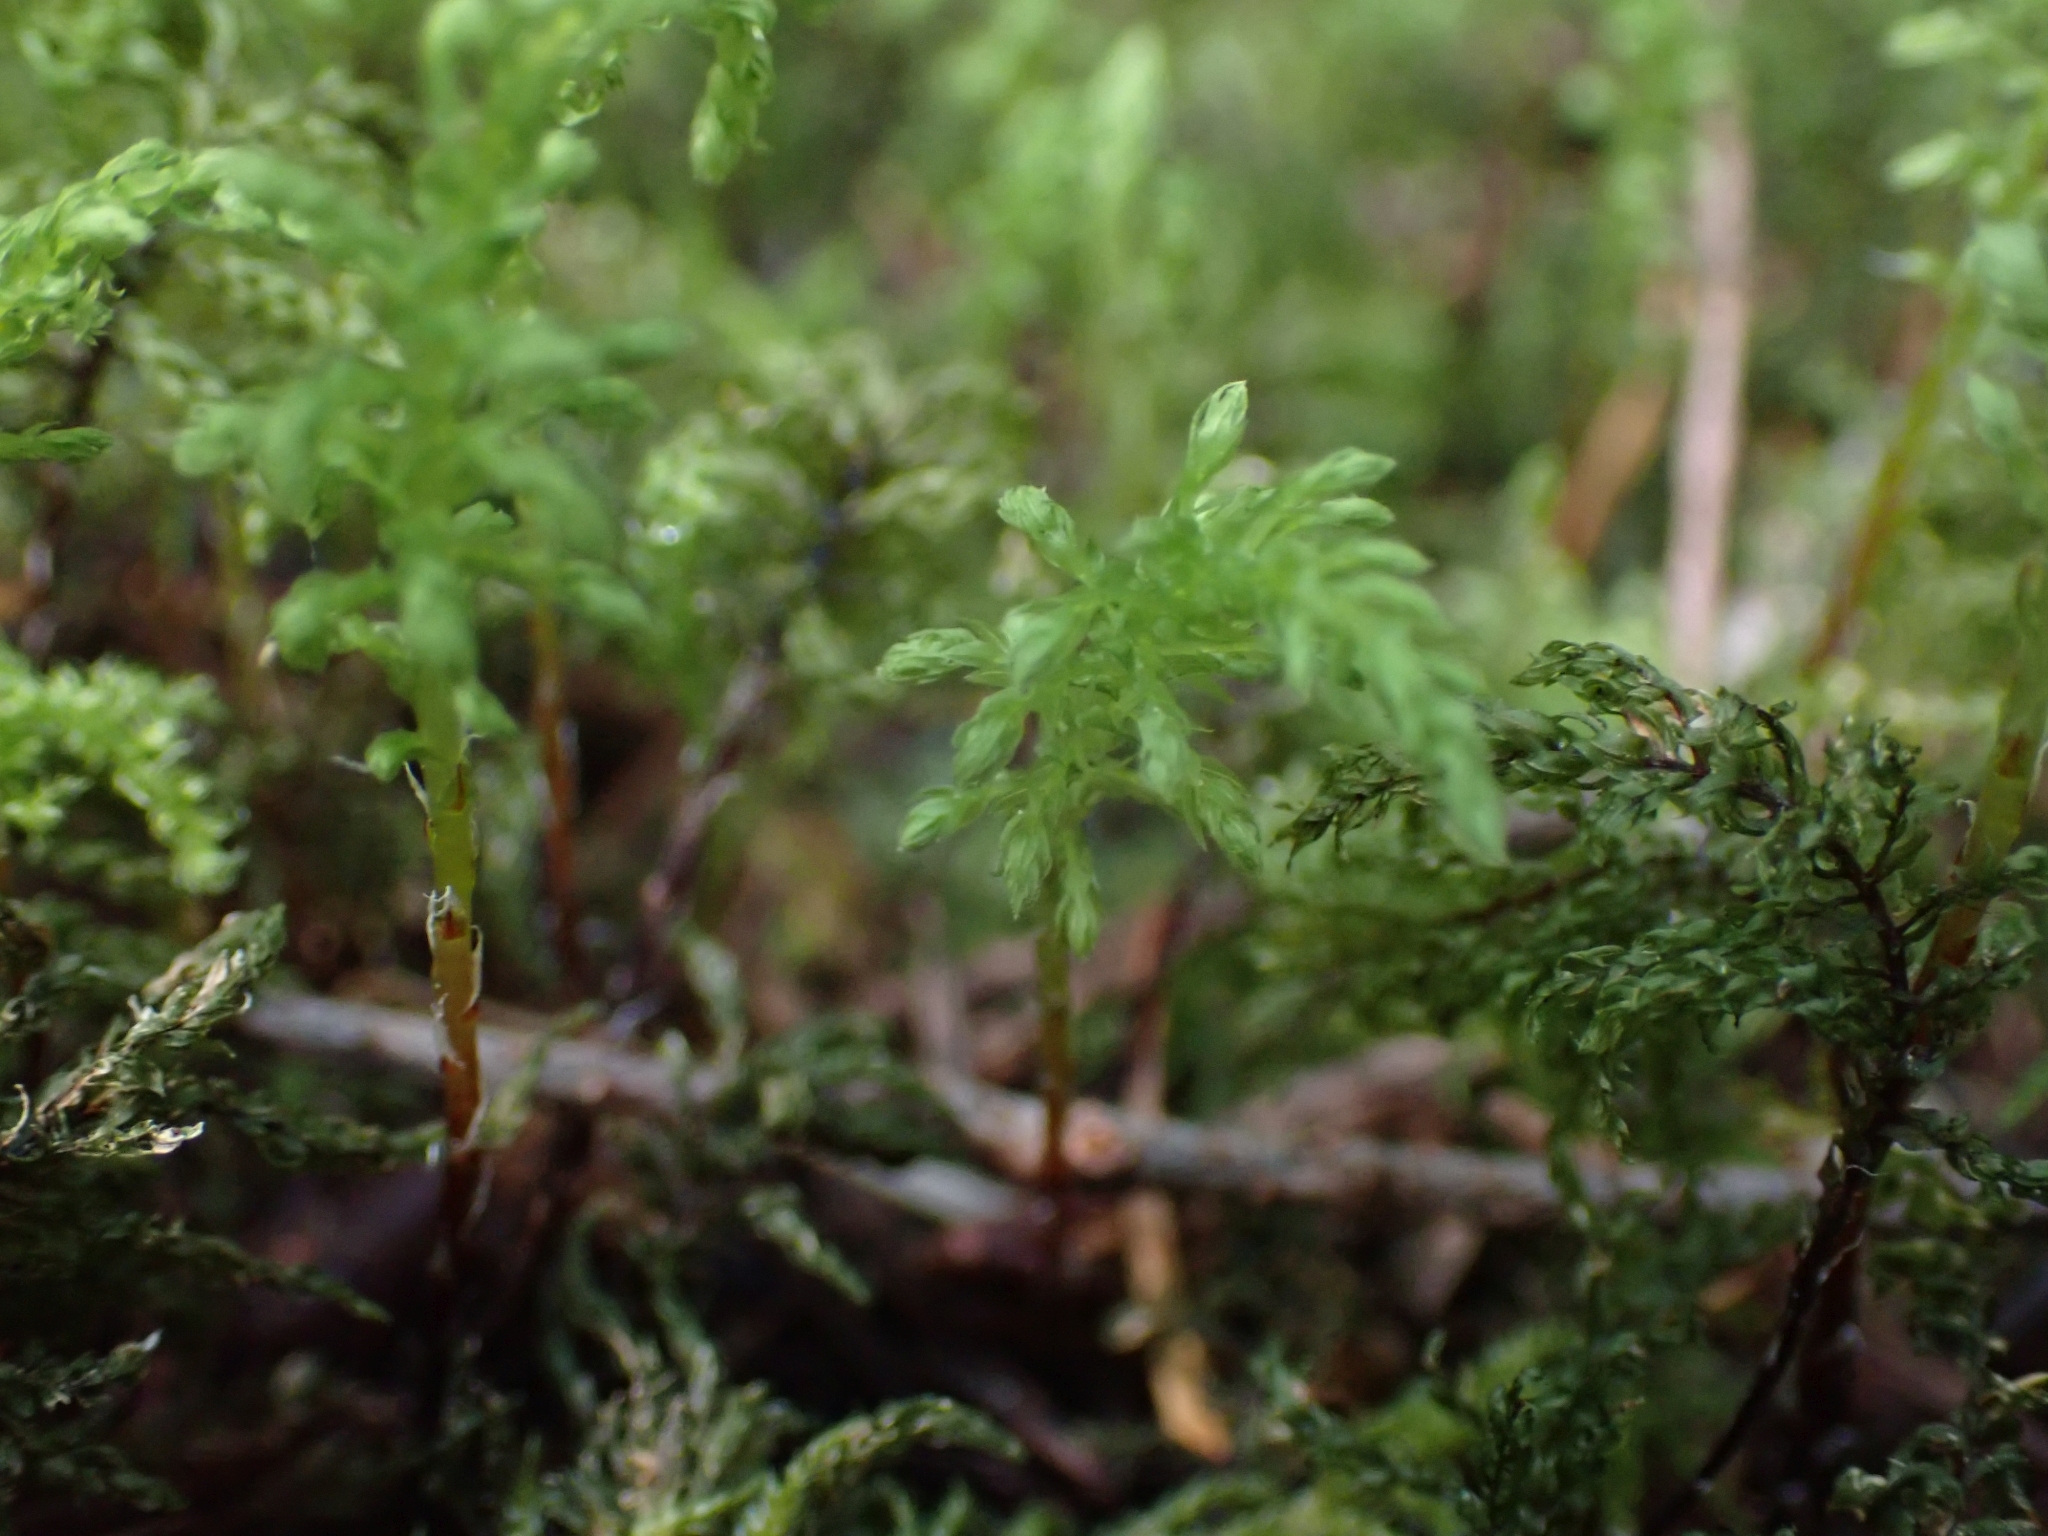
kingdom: Plantae
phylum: Bryophyta
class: Bryopsida
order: Bryales
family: Mniaceae
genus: Leucolepis
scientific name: Leucolepis acanthoneura
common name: Leucolepis umbrella moss
